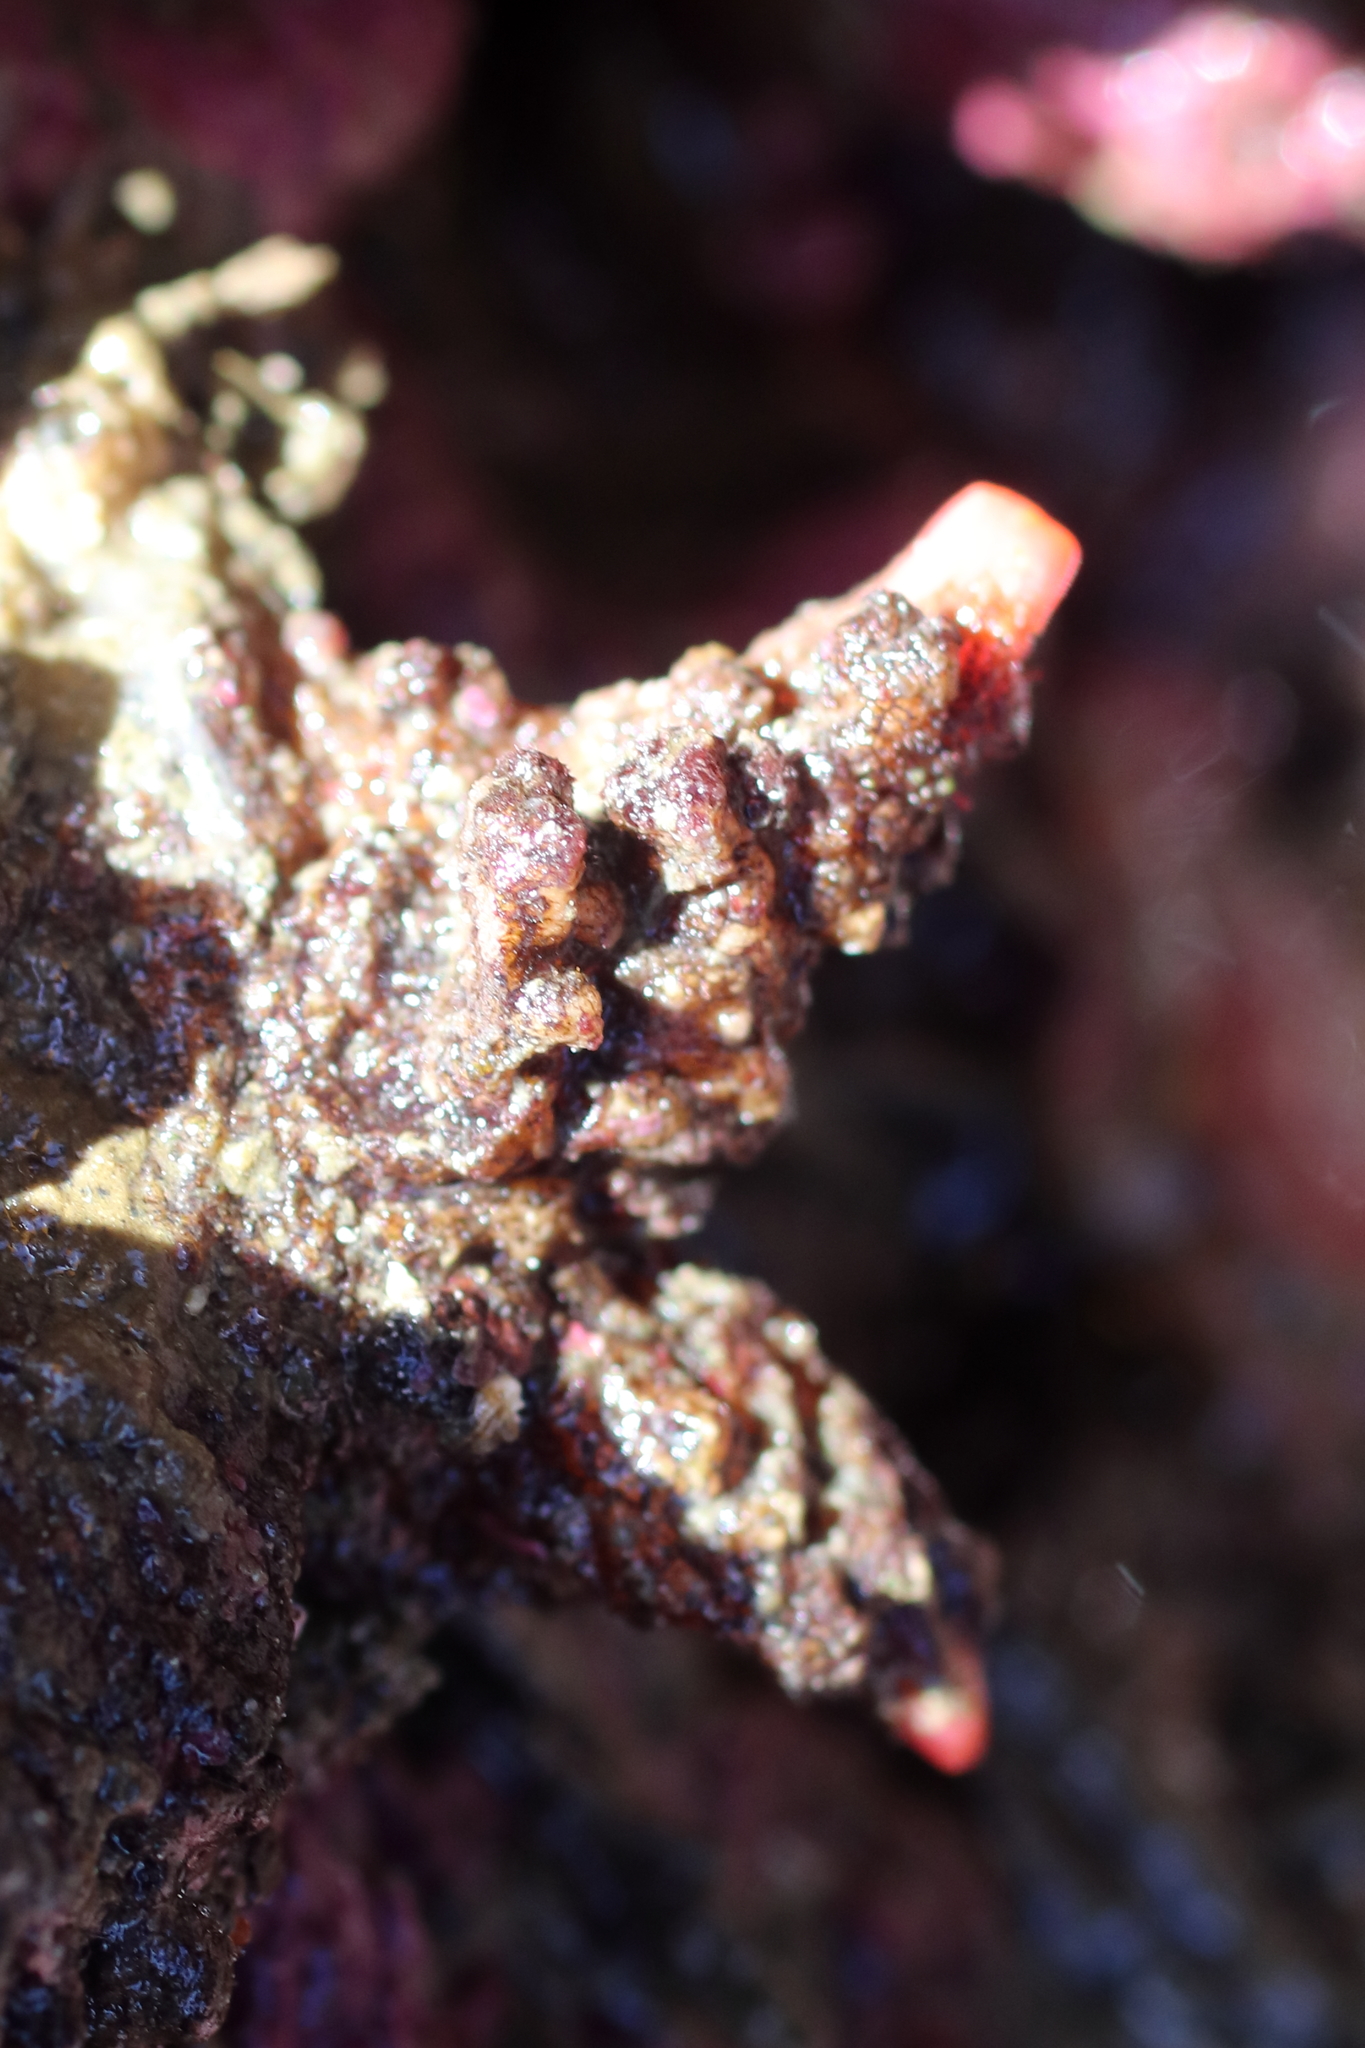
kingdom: Animalia
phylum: Chordata
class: Ascidiacea
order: Stolidobranchia
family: Pyuridae
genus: Pyura
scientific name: Pyura haustor
